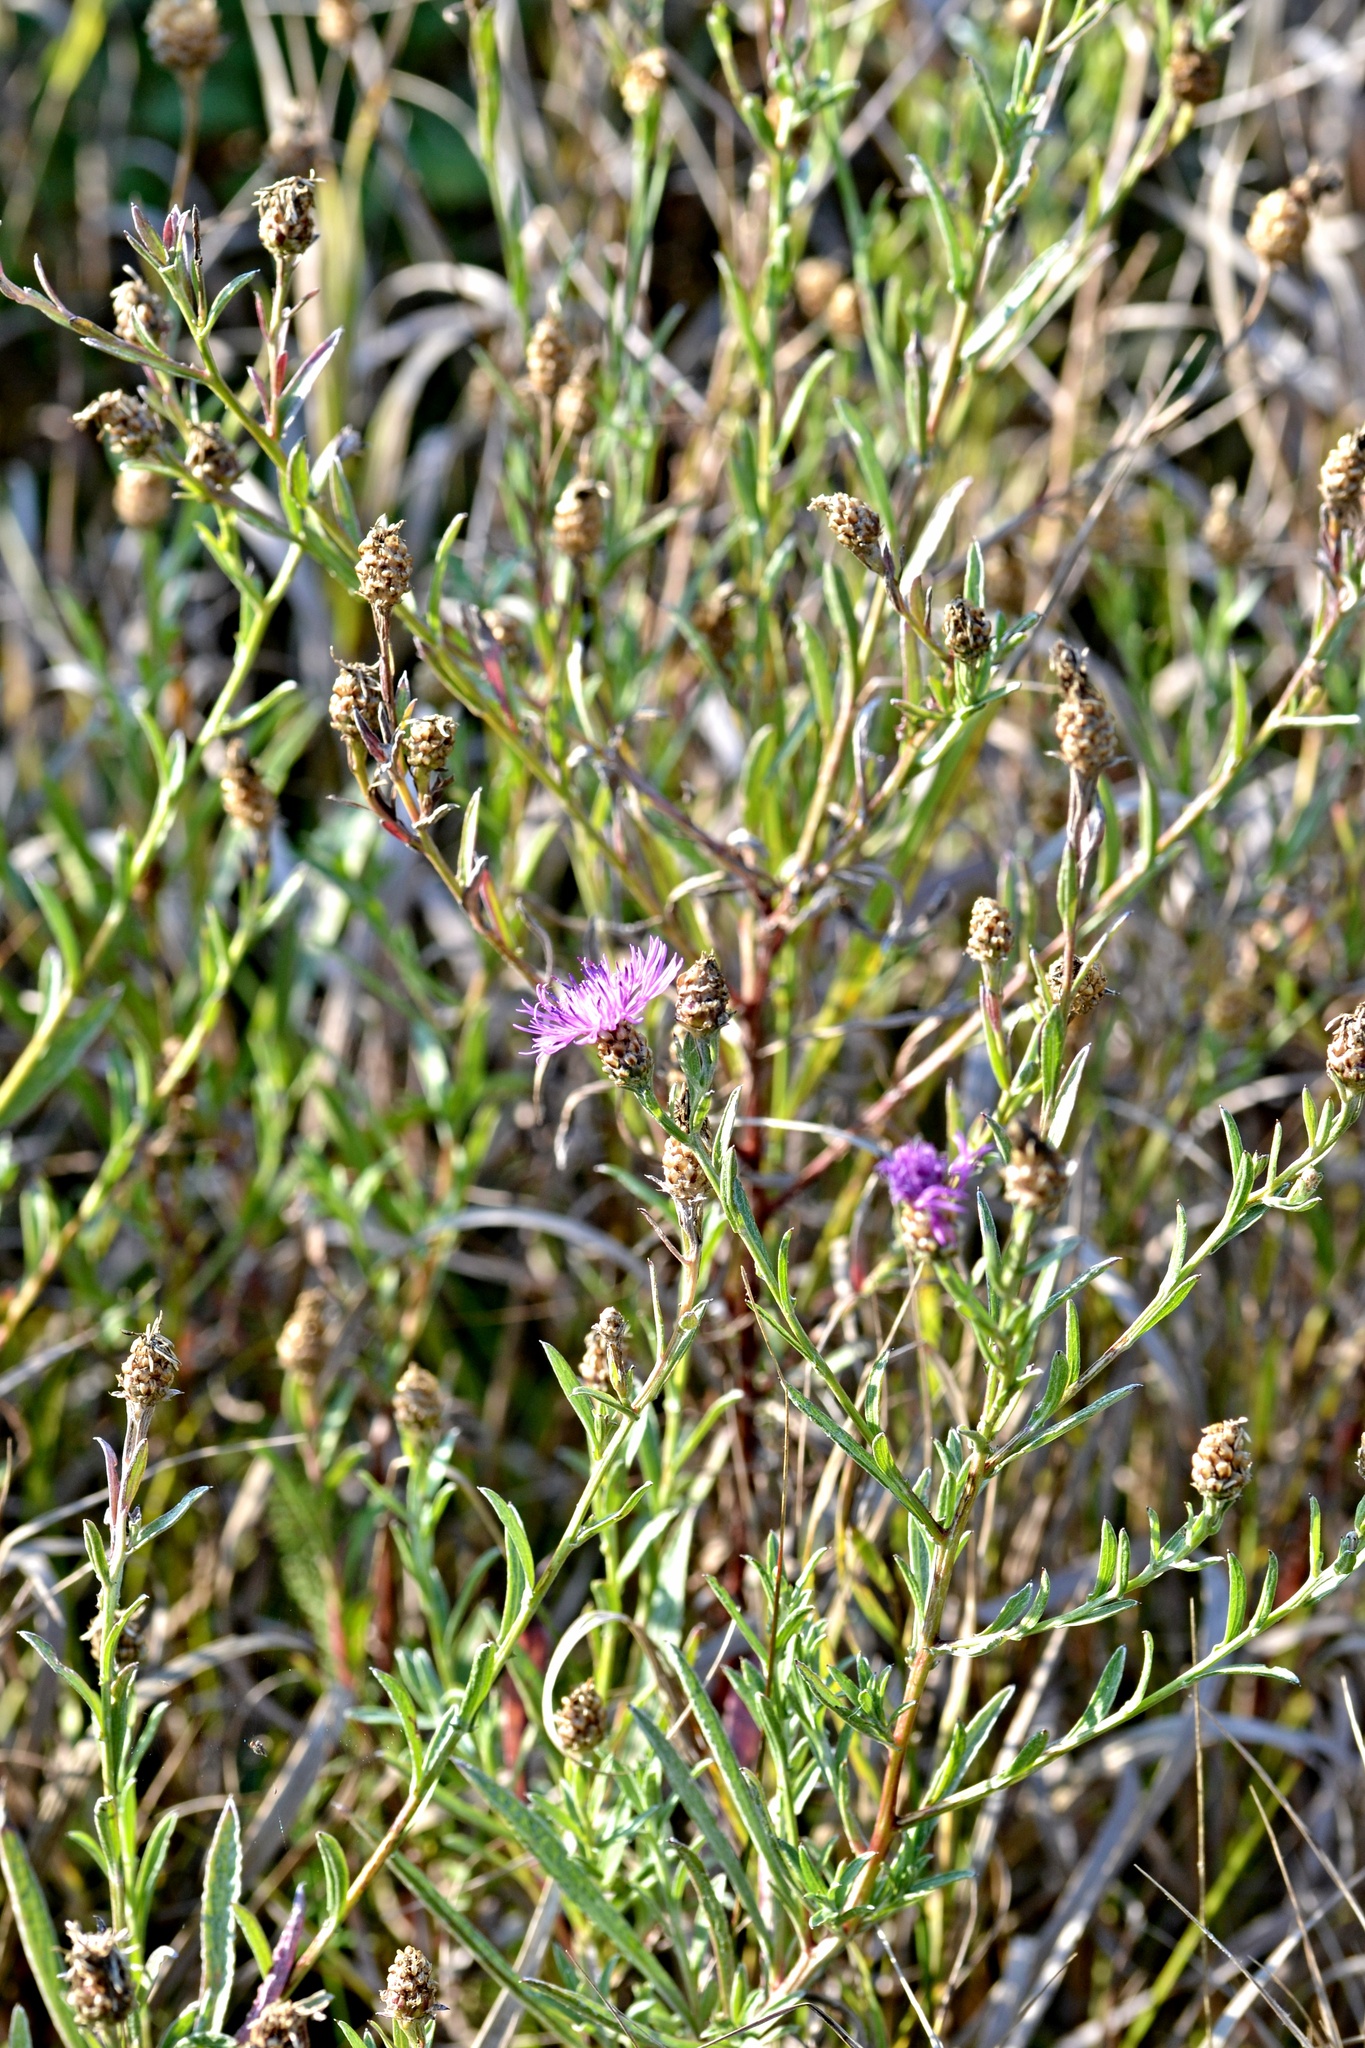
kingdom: Plantae
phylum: Tracheophyta
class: Magnoliopsida
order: Asterales
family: Asteraceae
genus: Centaurea
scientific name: Centaurea jacea
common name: Brown knapweed
